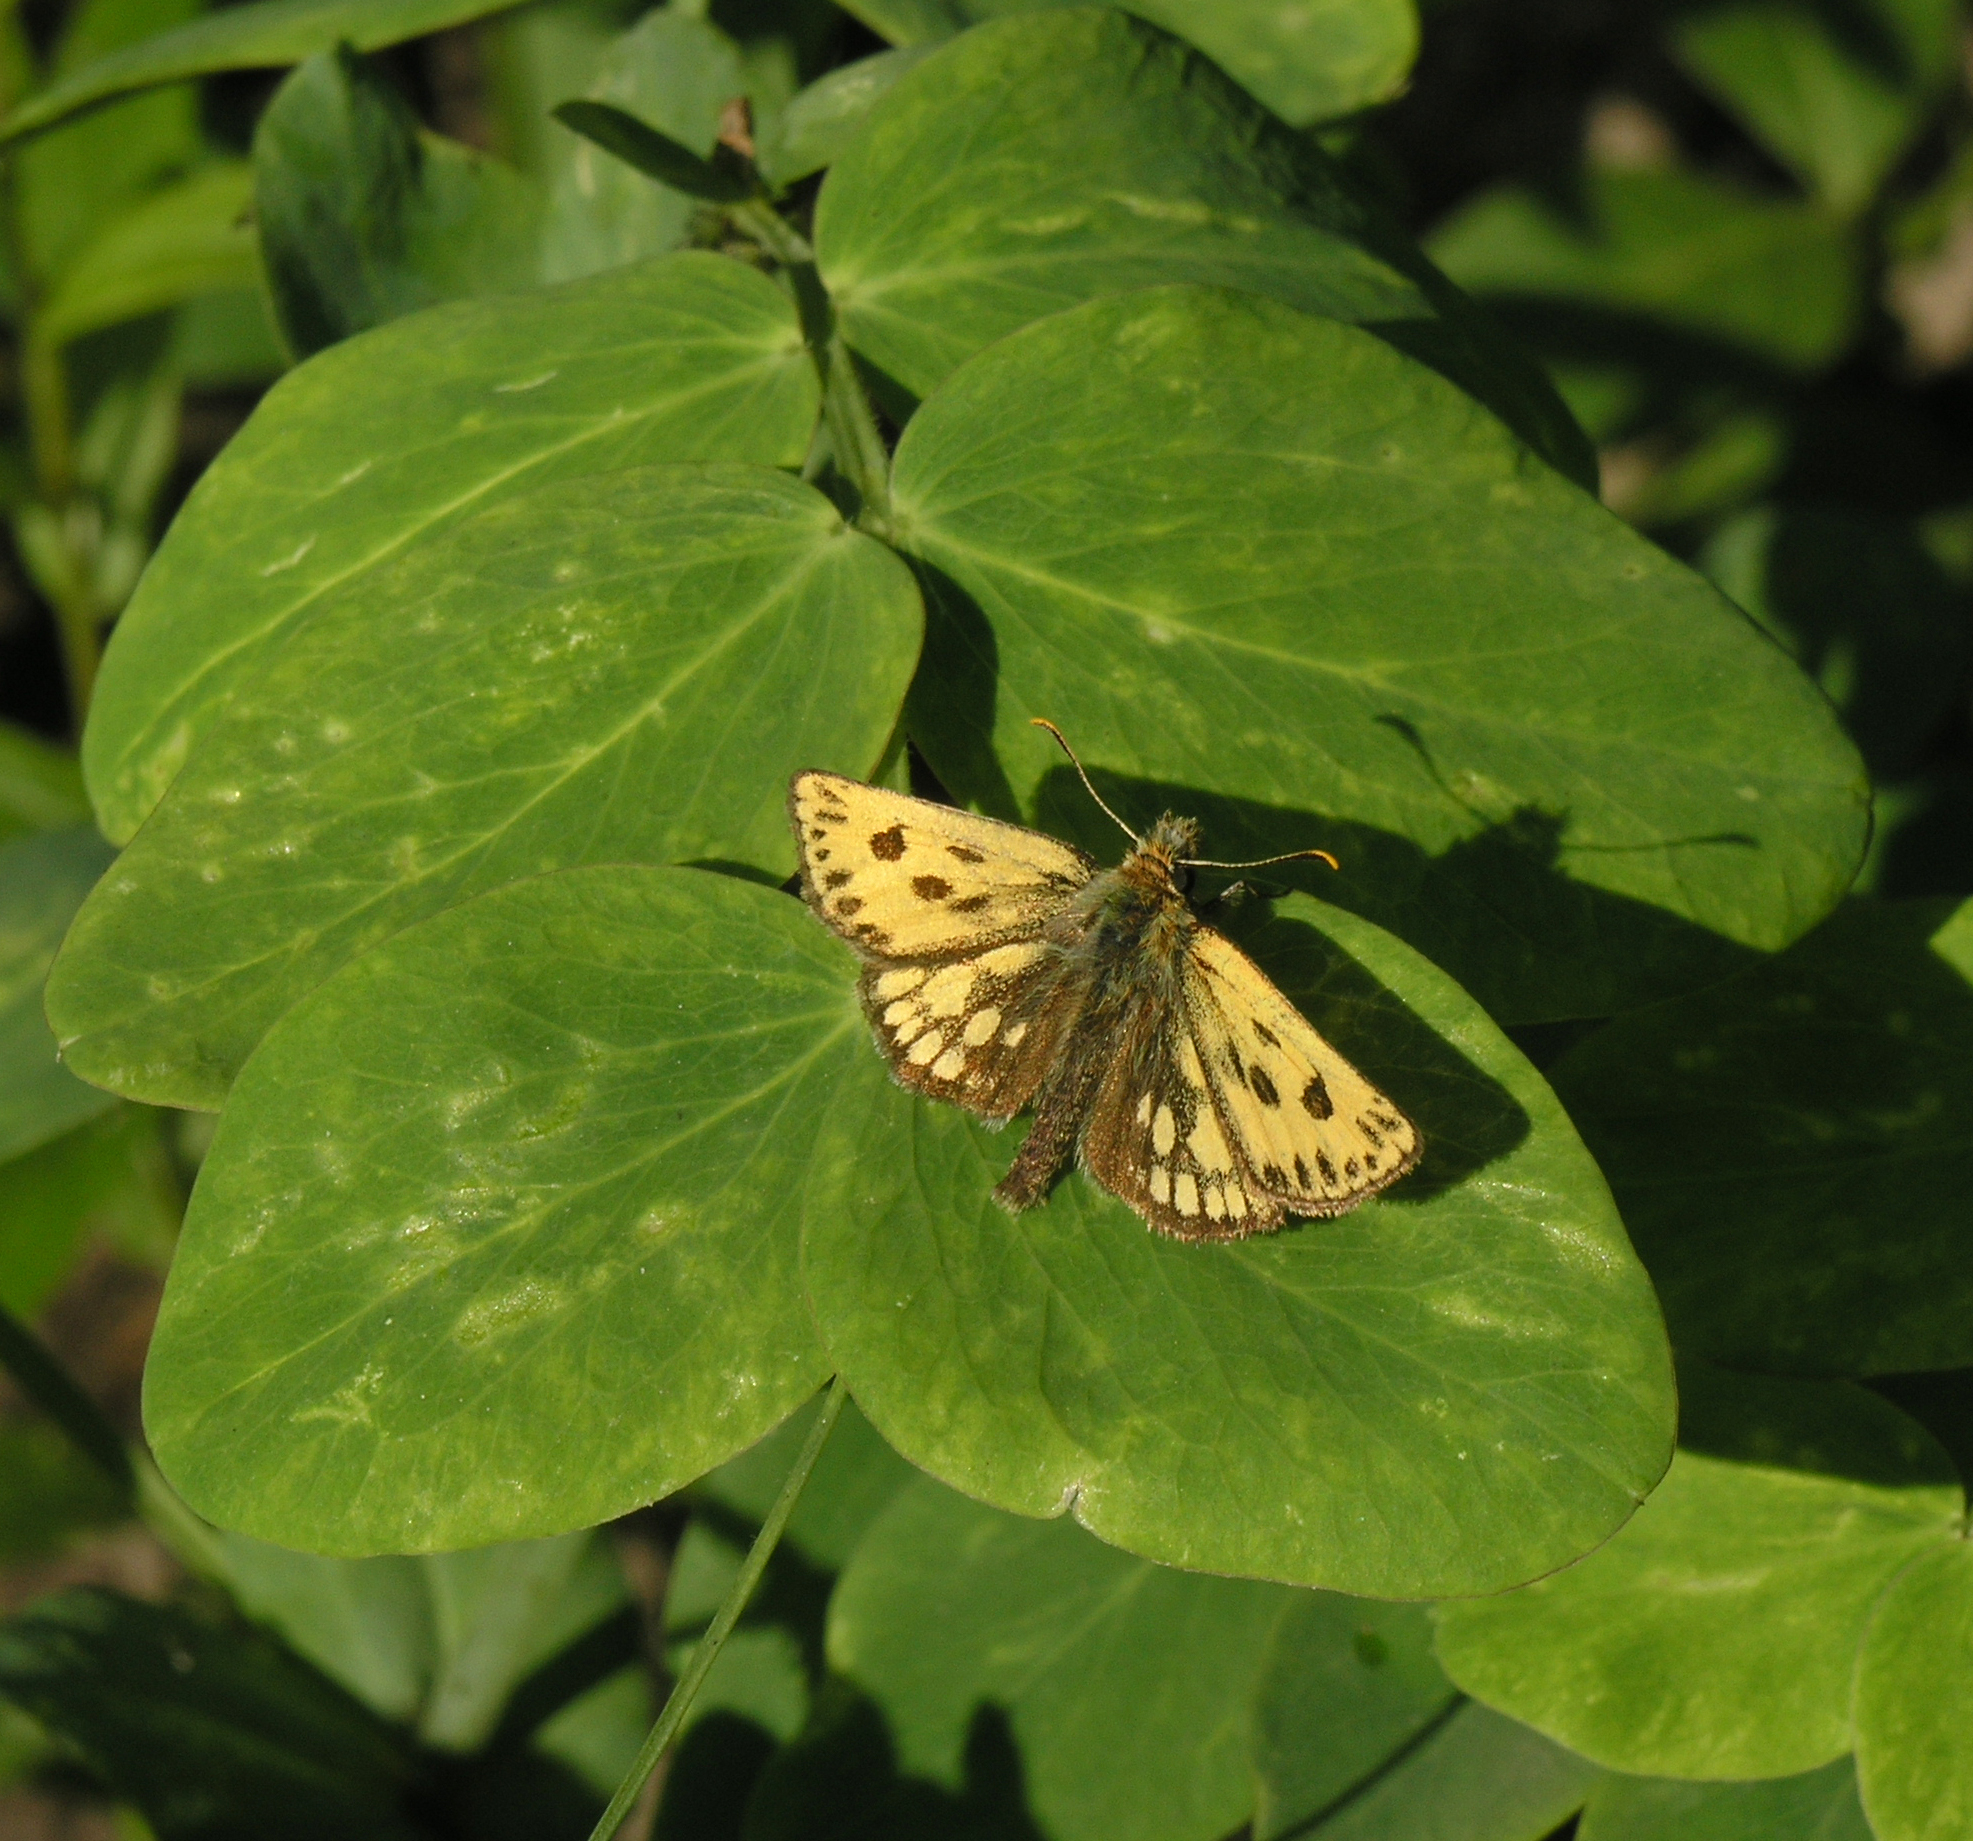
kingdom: Animalia
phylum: Arthropoda
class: Insecta
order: Lepidoptera
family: Hesperiidae
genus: Carterocephalus
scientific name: Carterocephalus silvicola
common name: Northern chequered skipper
